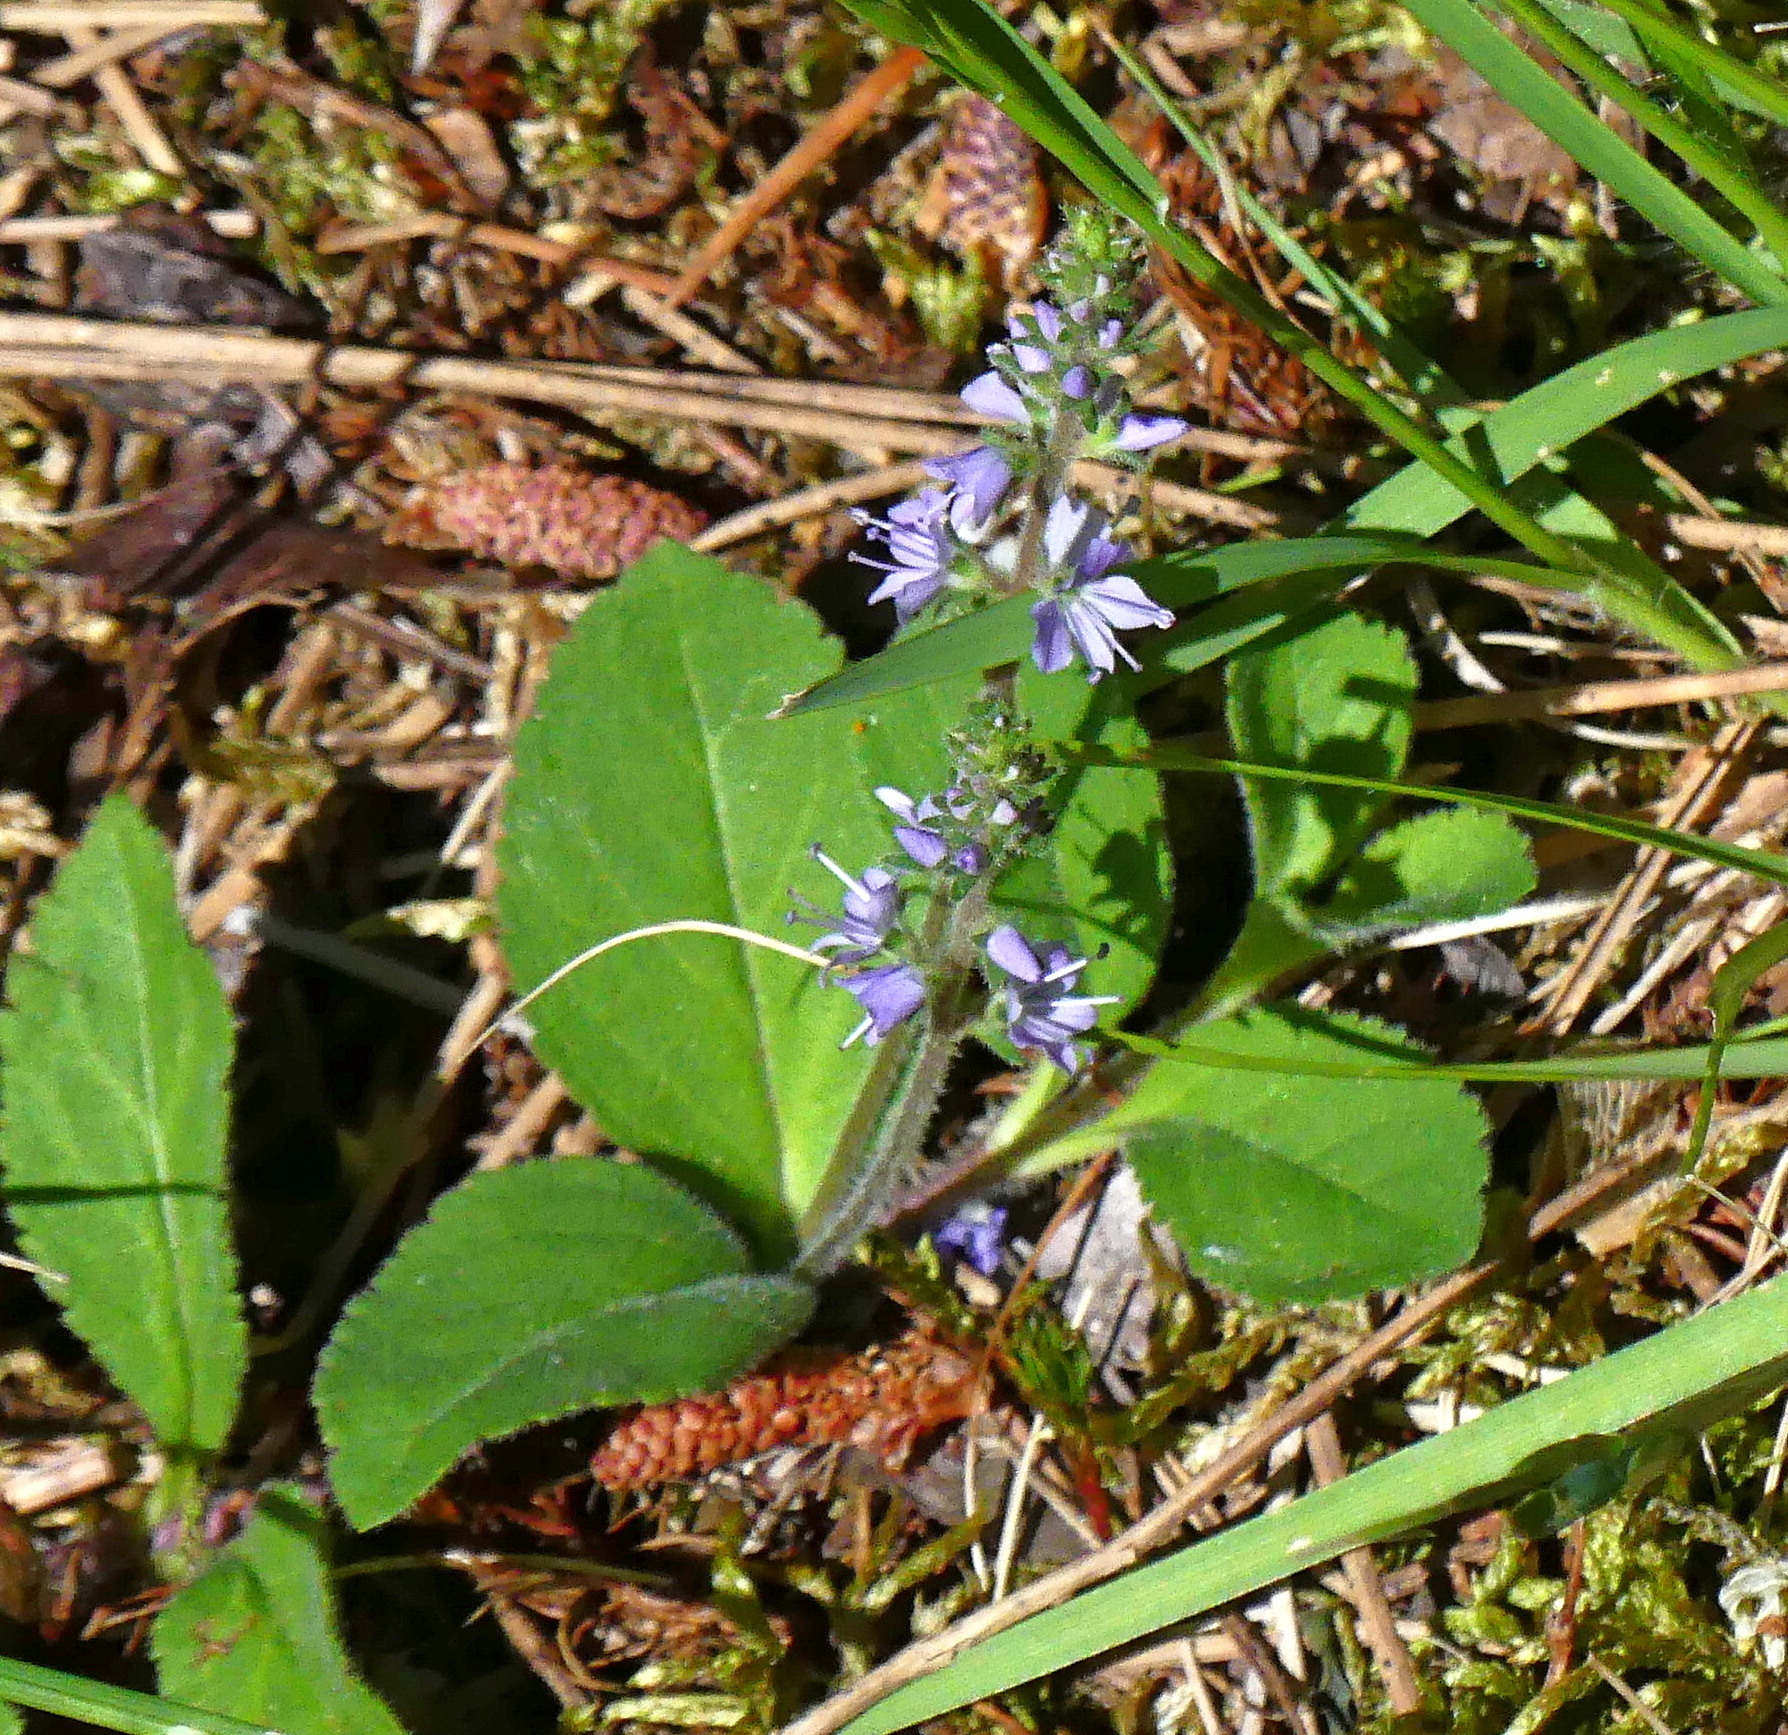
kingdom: Plantae
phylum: Tracheophyta
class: Magnoliopsida
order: Lamiales
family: Plantaginaceae
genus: Veronica
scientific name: Veronica officinalis
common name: Common speedwell
